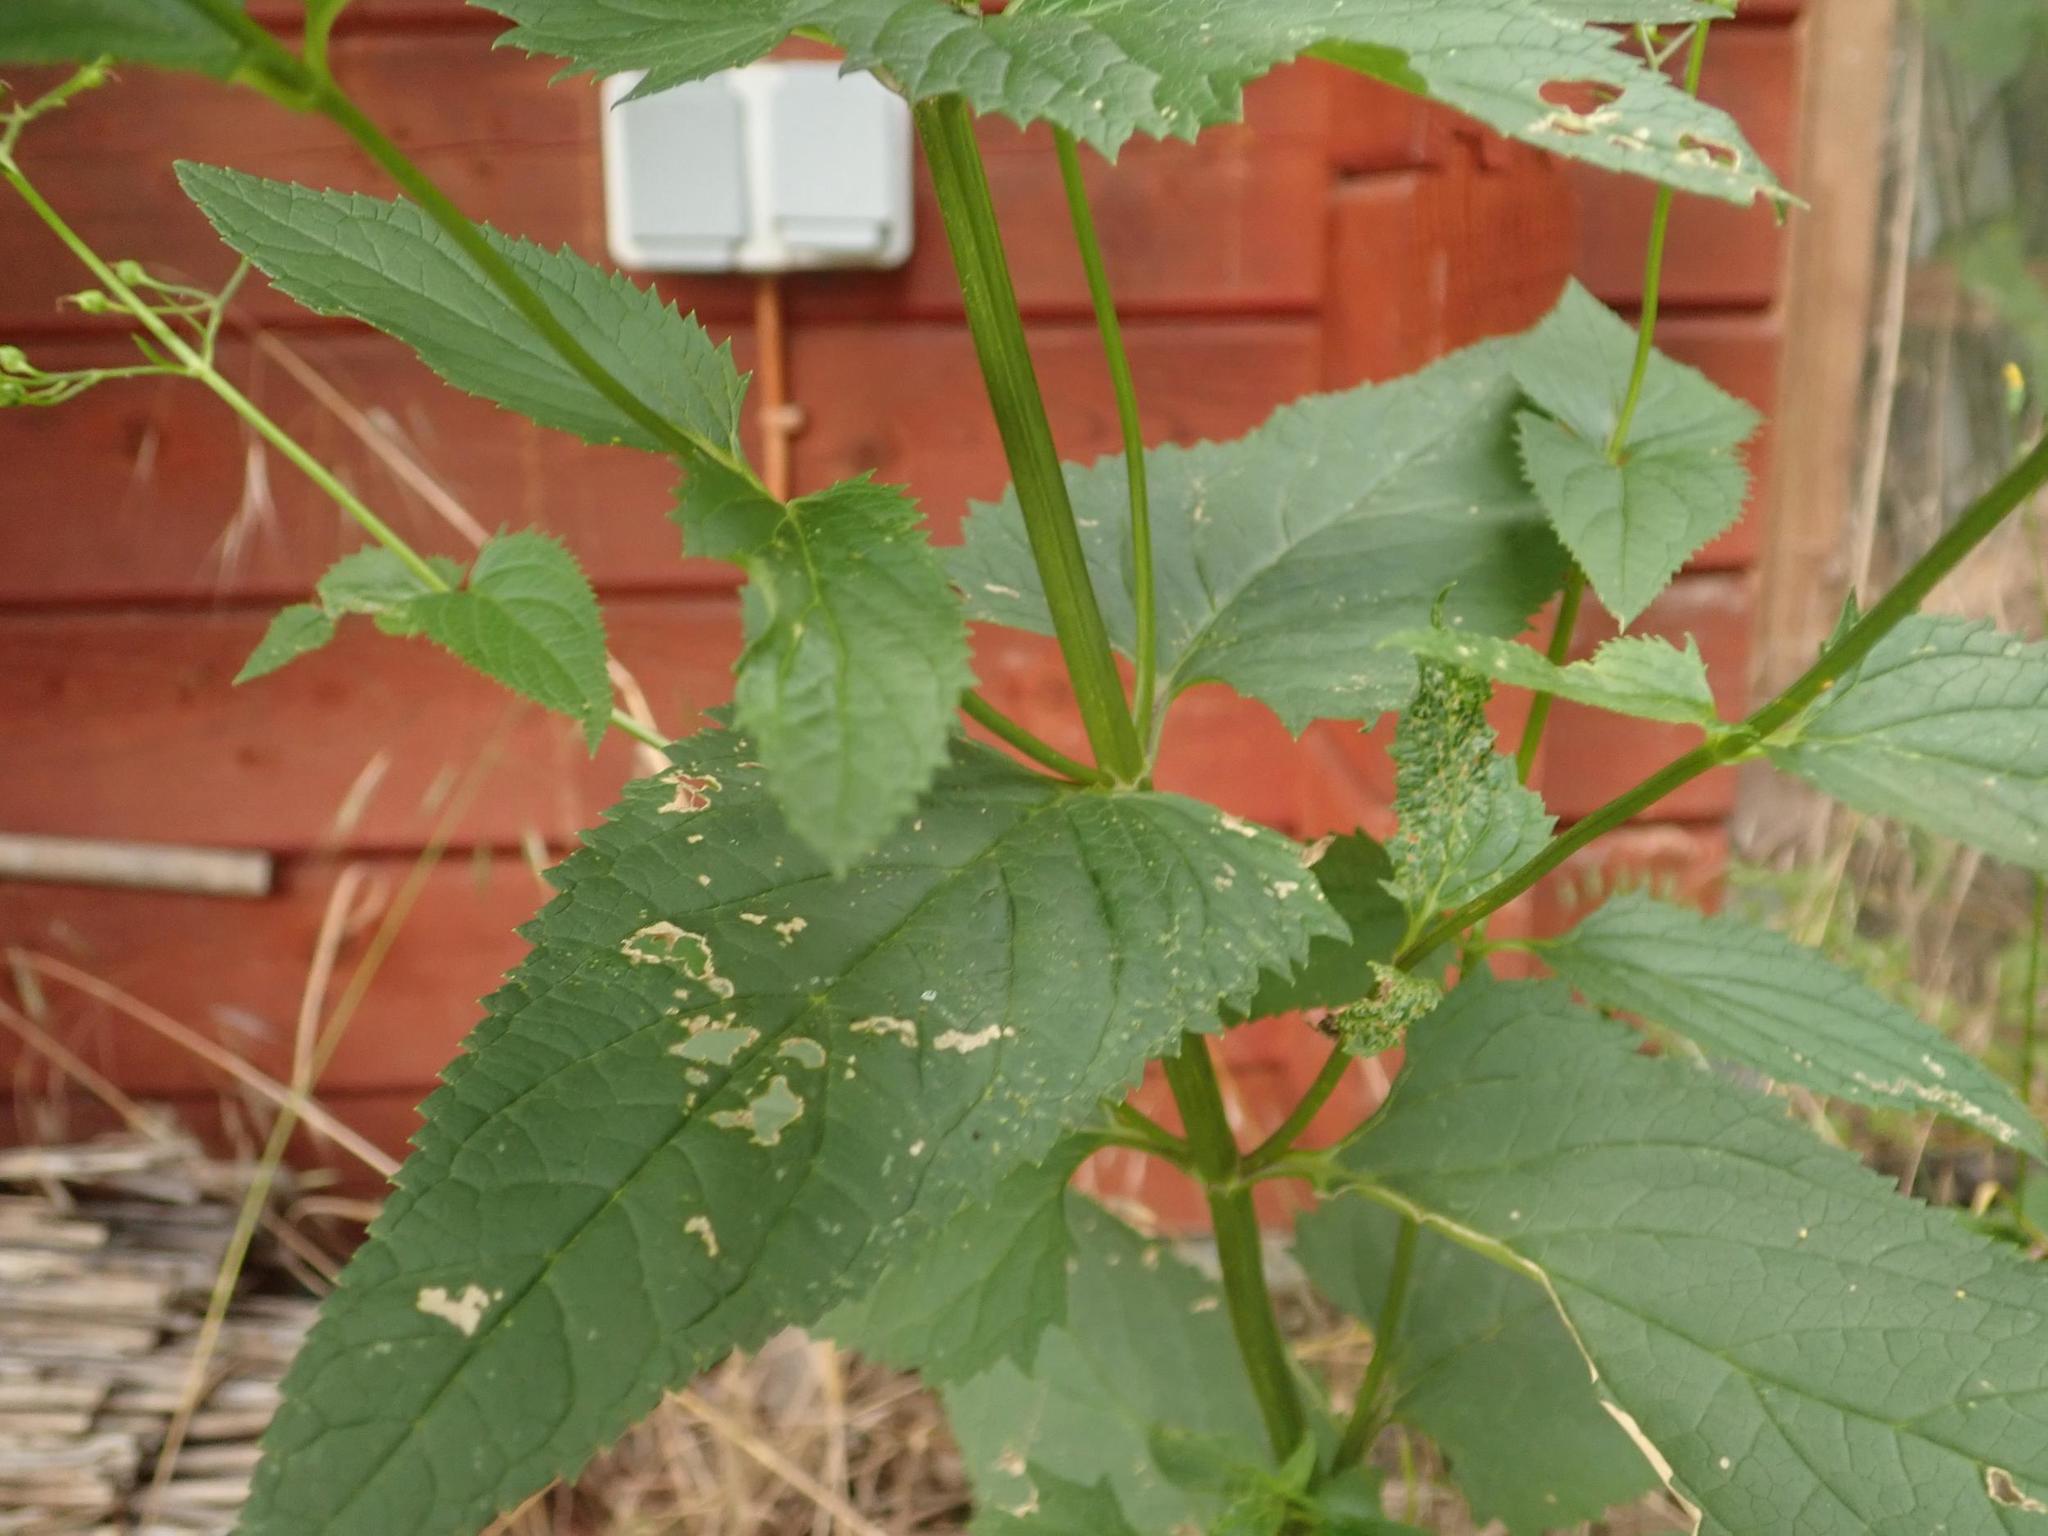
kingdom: Plantae
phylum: Tracheophyta
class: Magnoliopsida
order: Lamiales
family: Scrophulariaceae
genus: Scrophularia
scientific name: Scrophularia nodosa
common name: Common figwort
